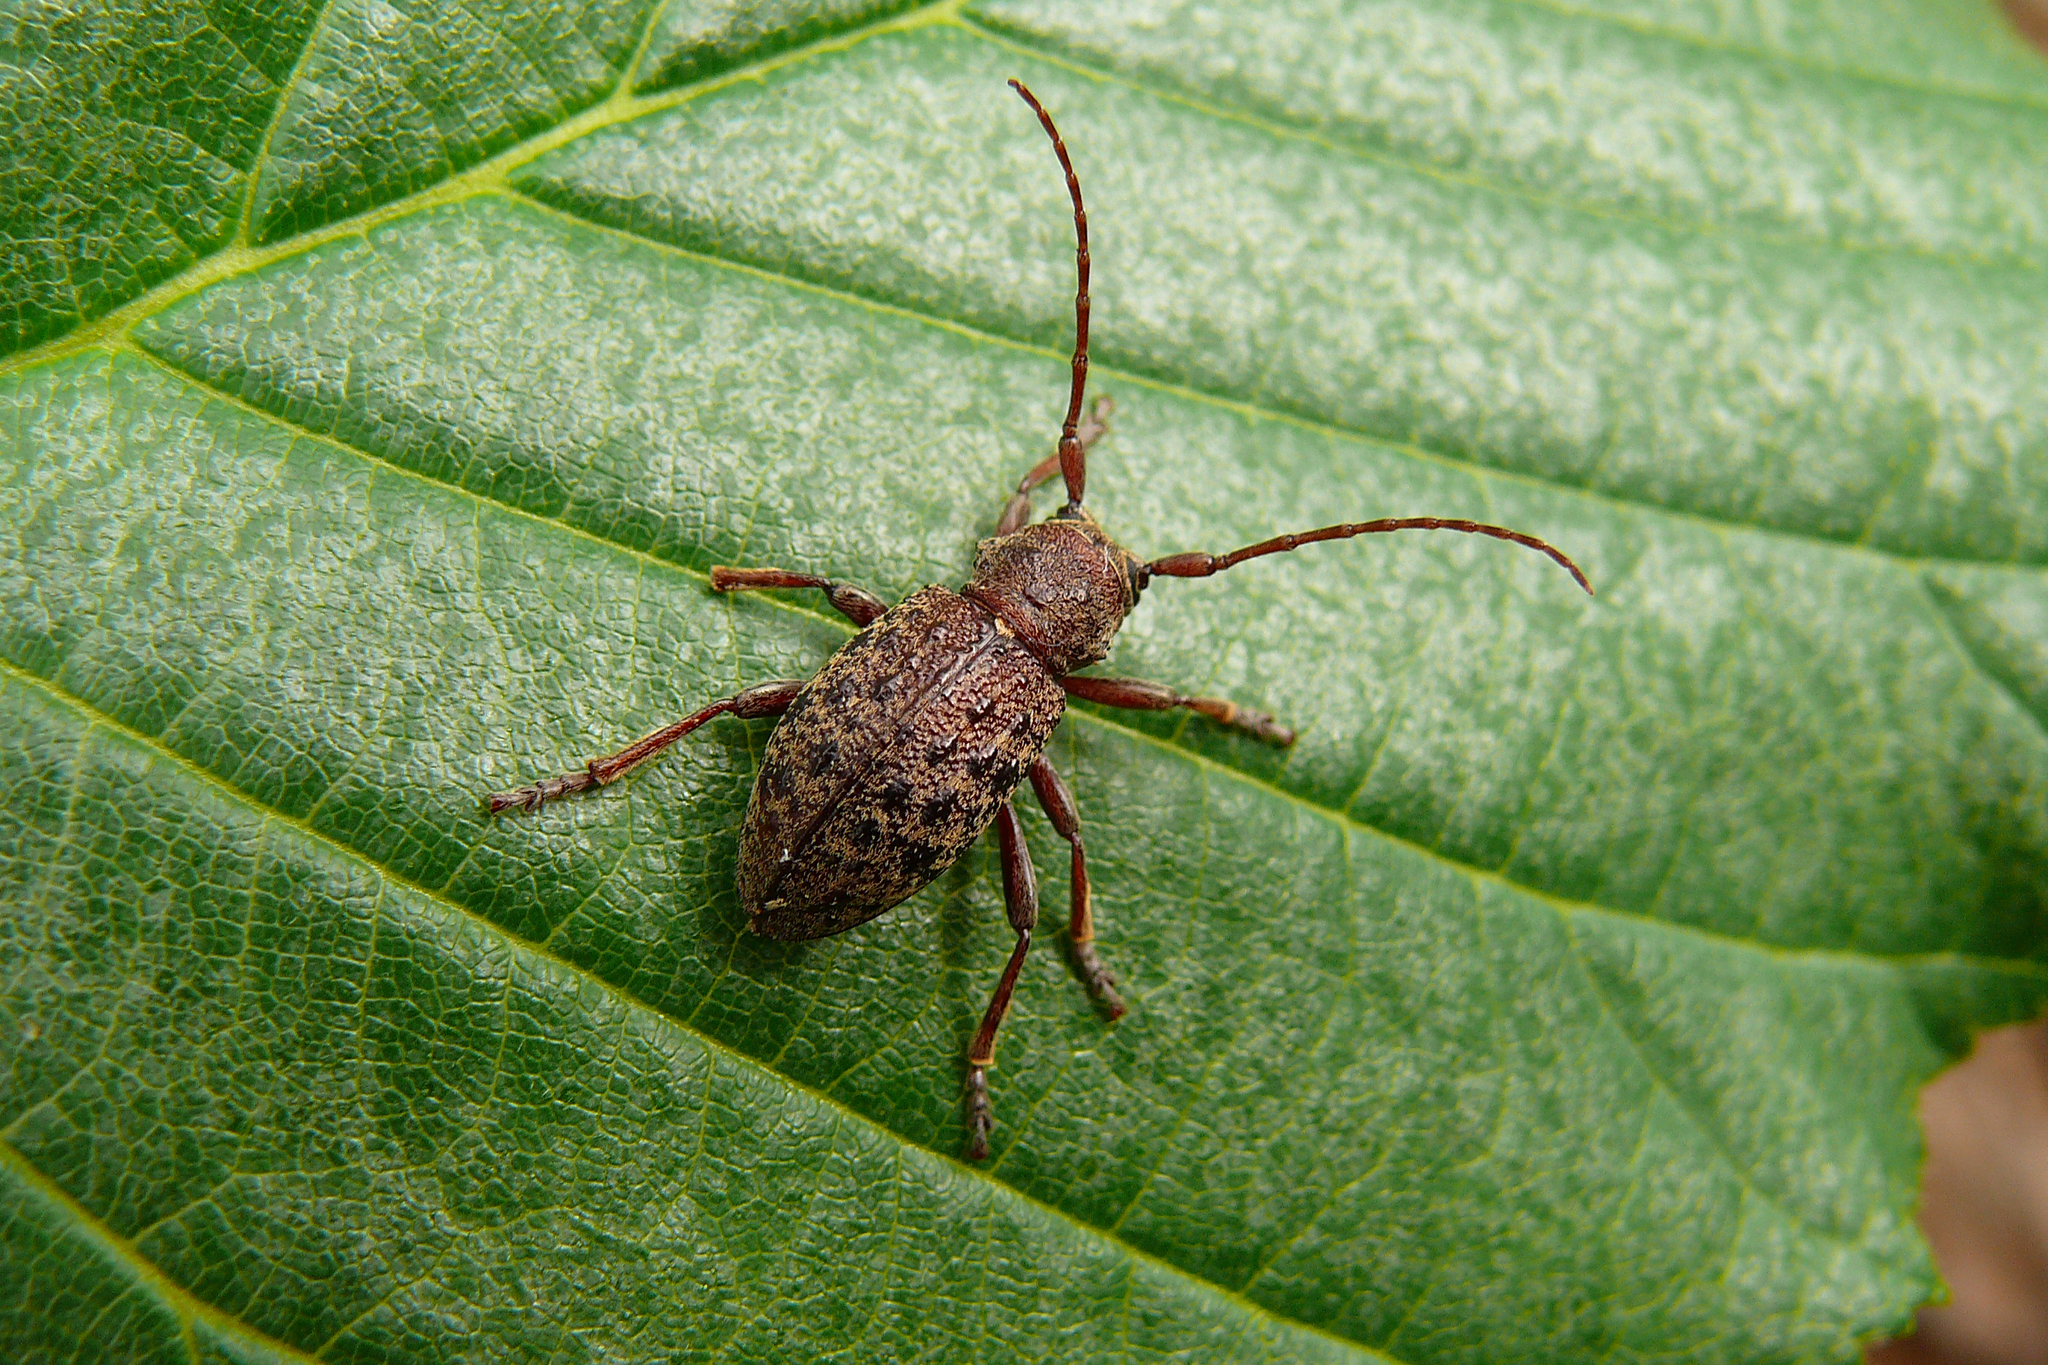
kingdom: Animalia
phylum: Arthropoda
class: Insecta
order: Coleoptera
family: Cerambycidae
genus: Plectrura
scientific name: Plectrura metallica
